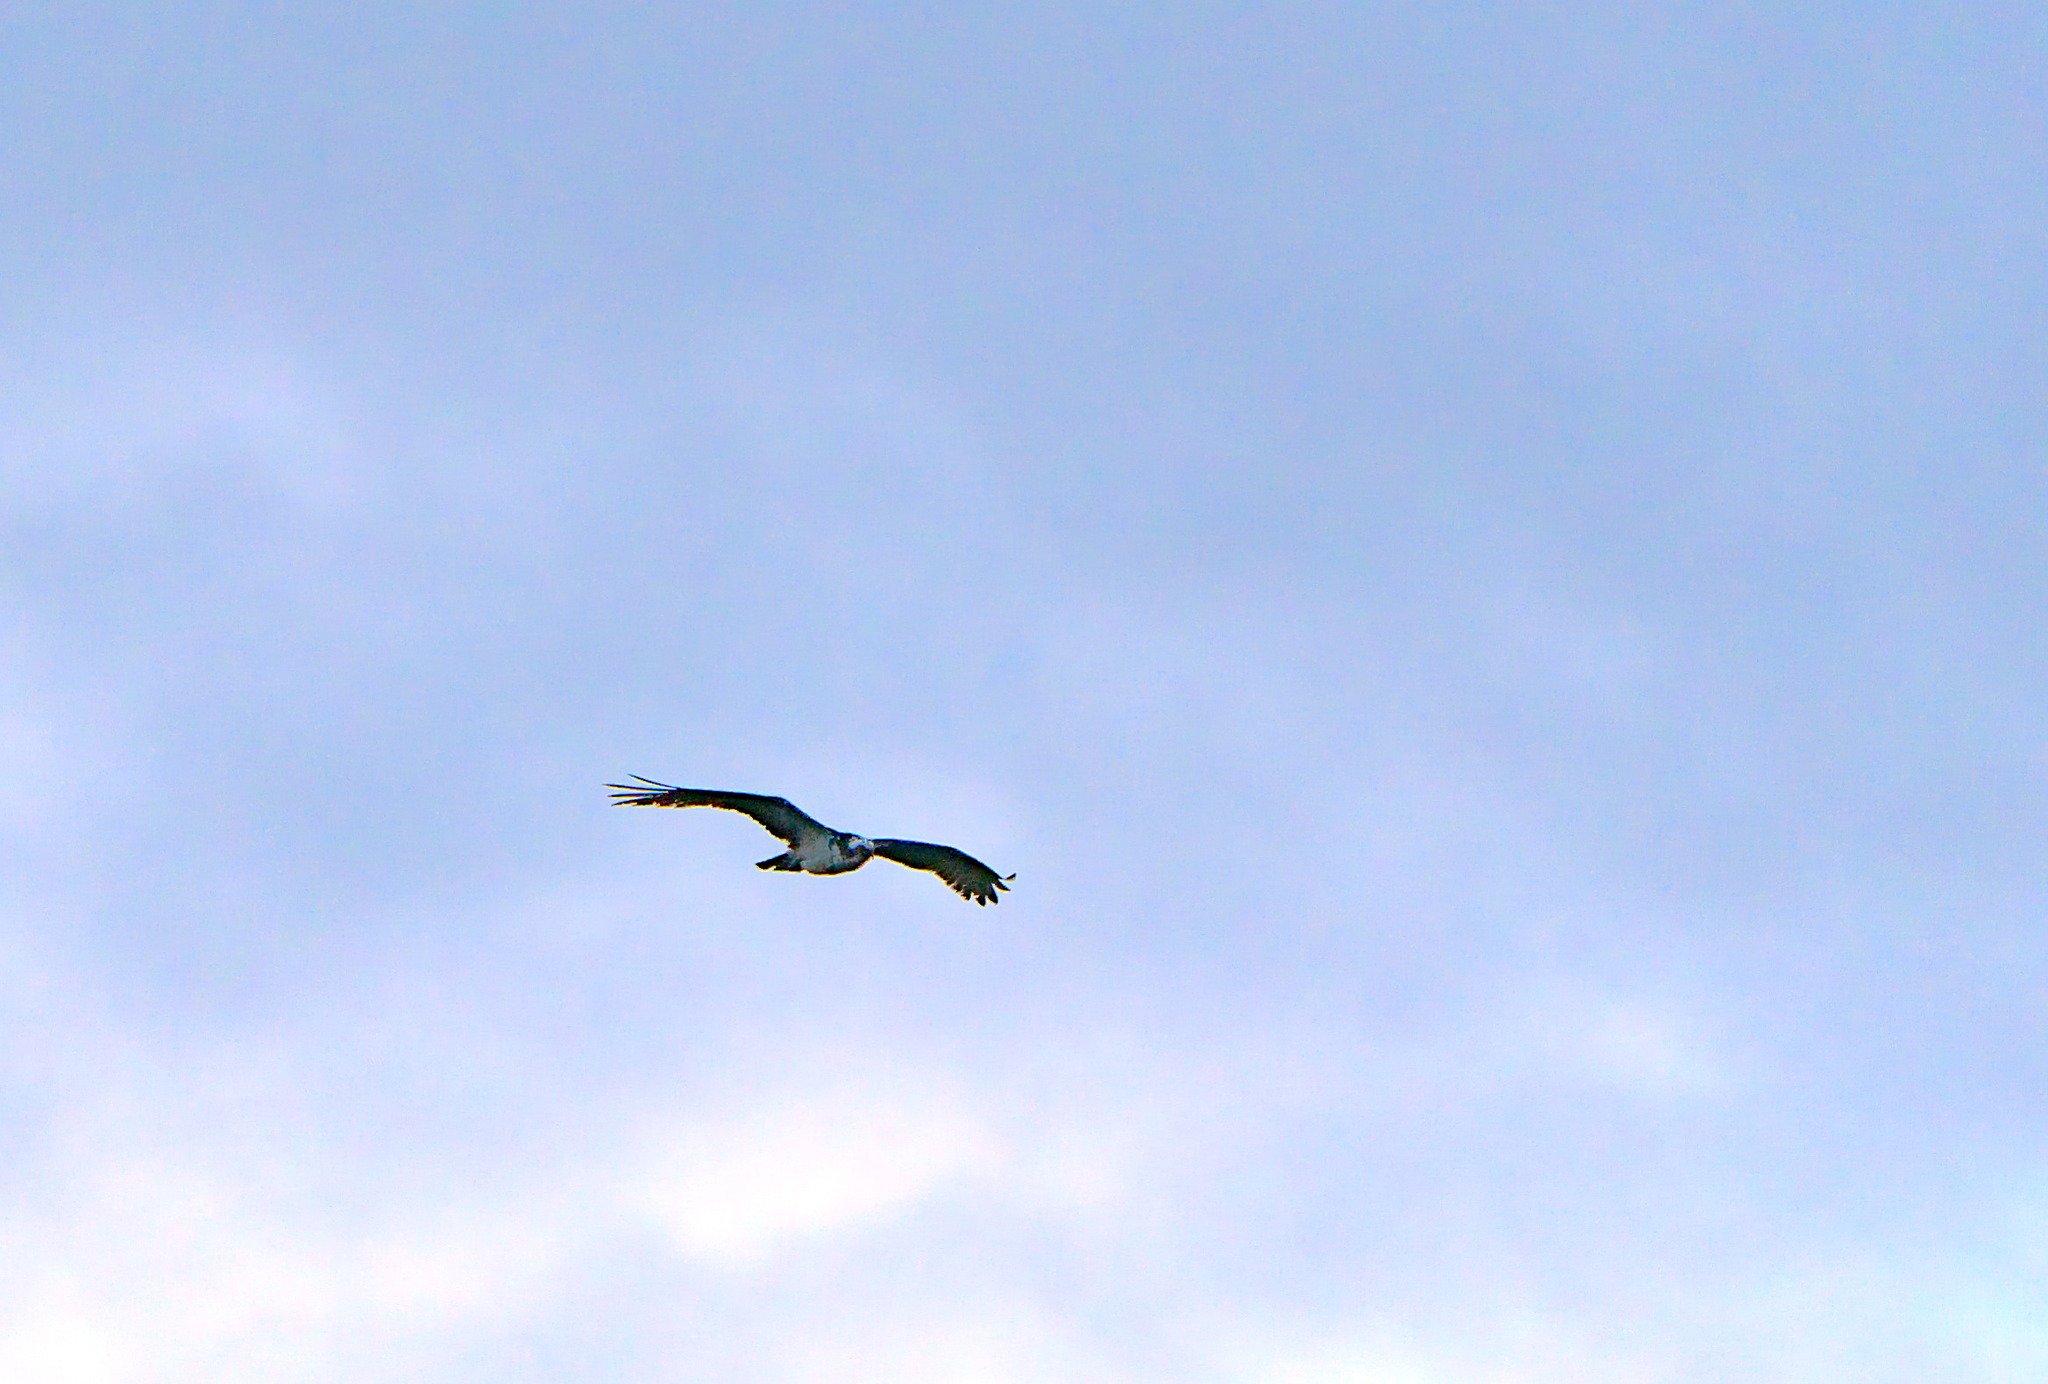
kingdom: Animalia
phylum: Chordata
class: Aves
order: Accipitriformes
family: Pandionidae
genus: Pandion
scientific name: Pandion haliaetus
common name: Osprey
